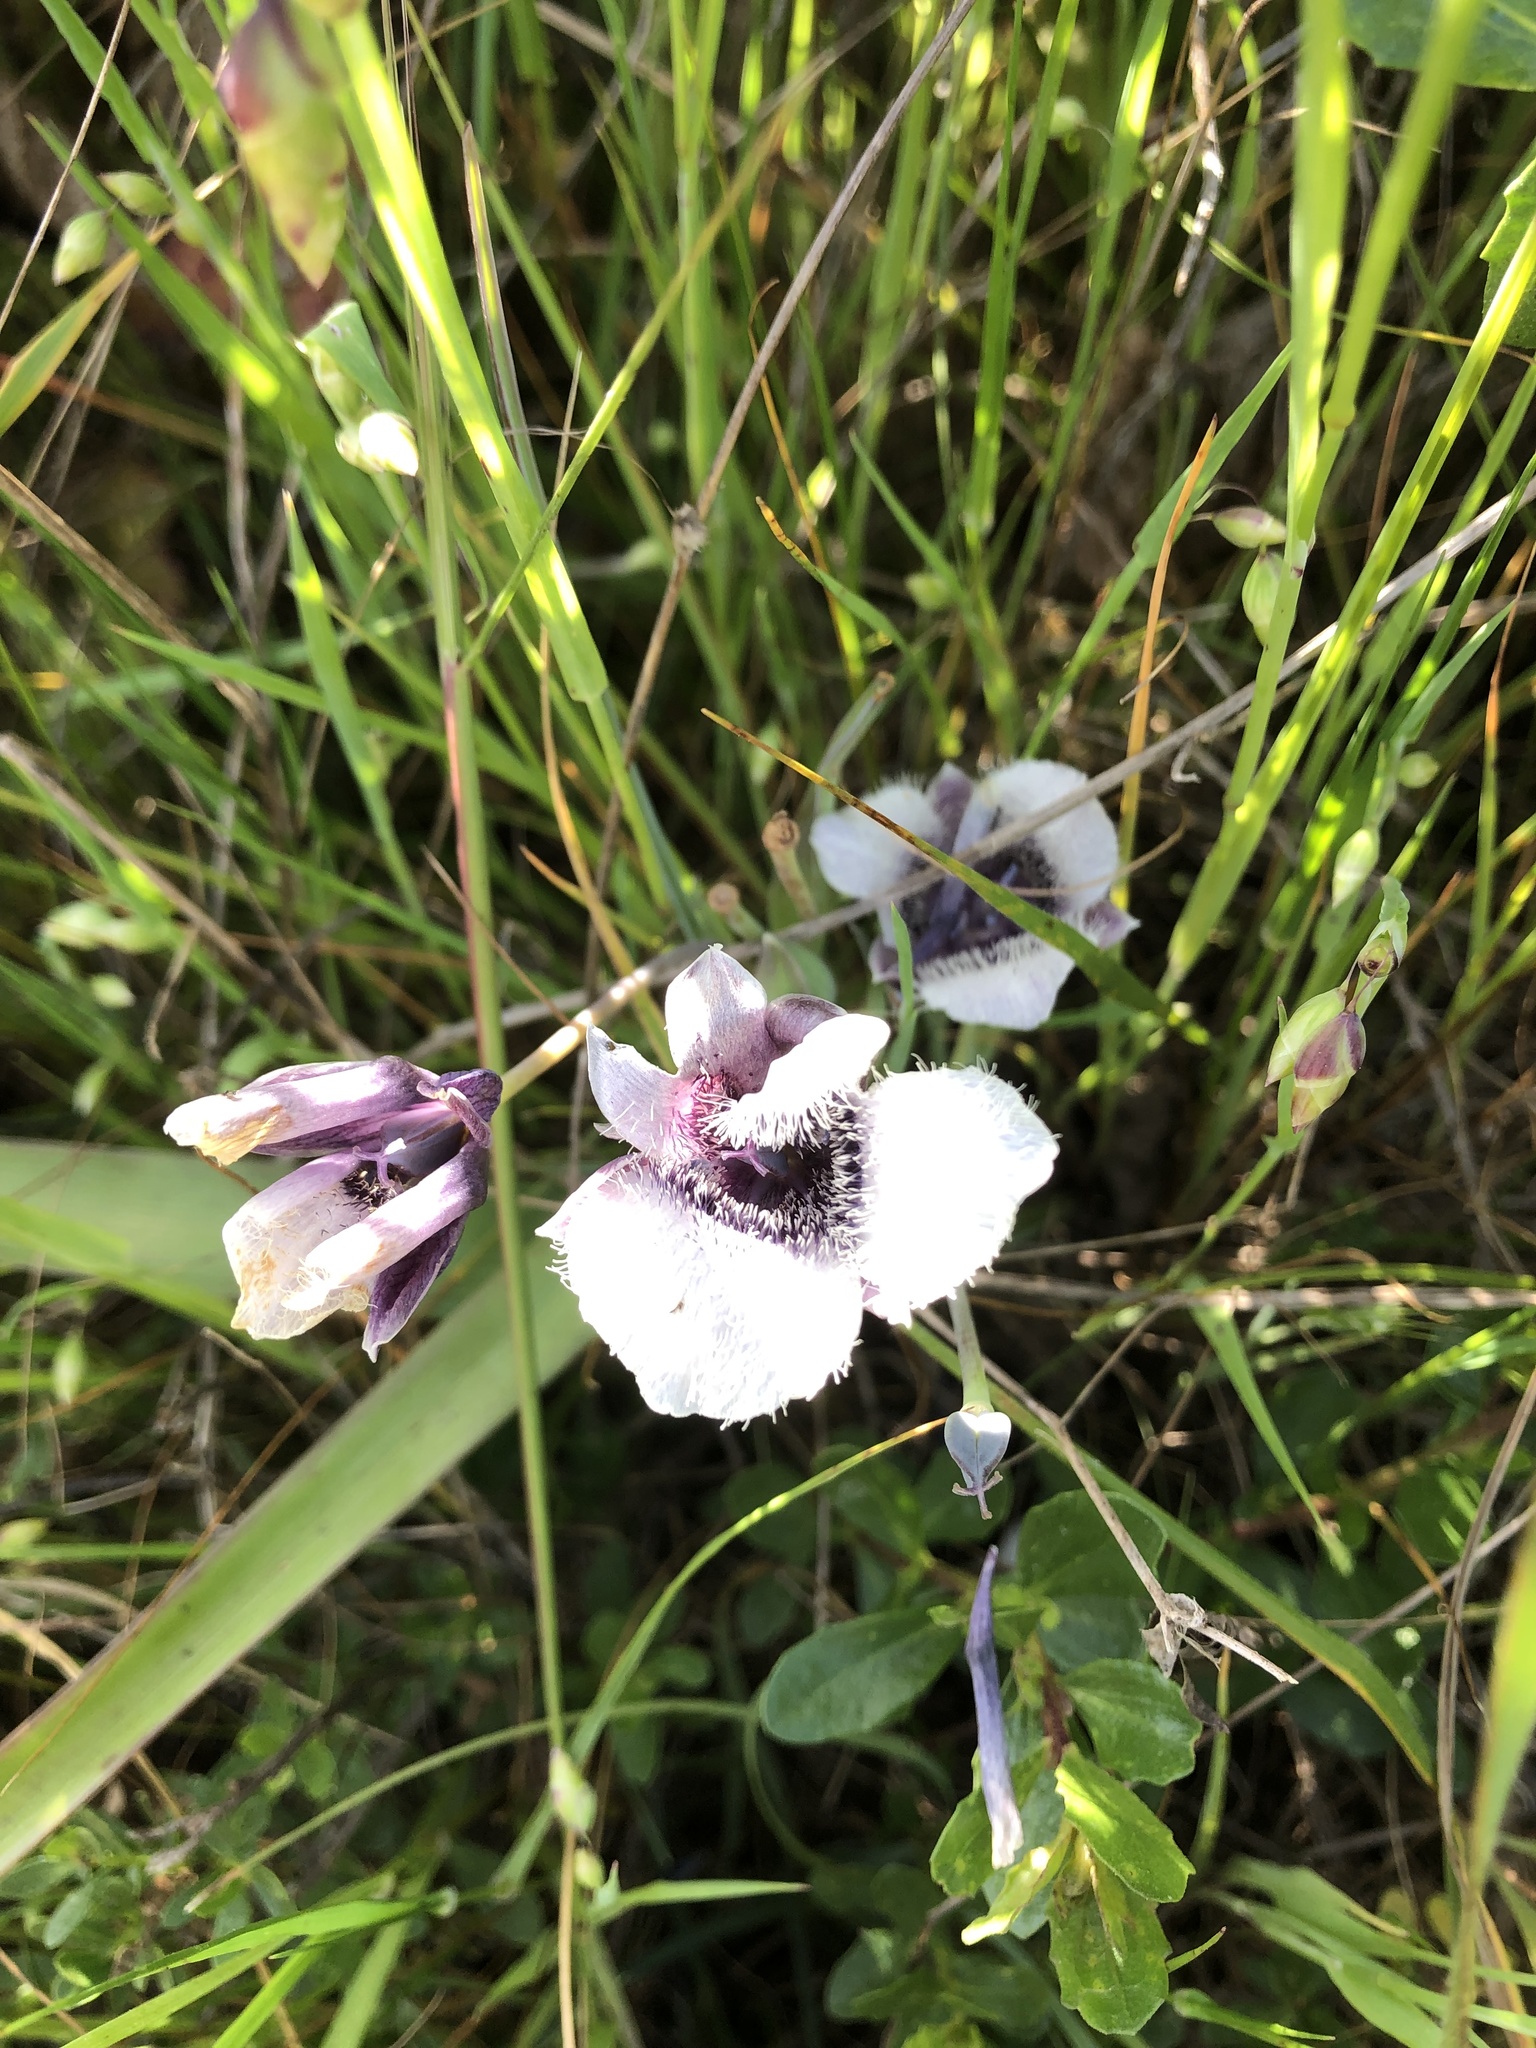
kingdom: Plantae
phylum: Tracheophyta
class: Liliopsida
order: Liliales
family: Liliaceae
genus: Calochortus
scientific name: Calochortus tolmiei
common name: Pussy-ears
